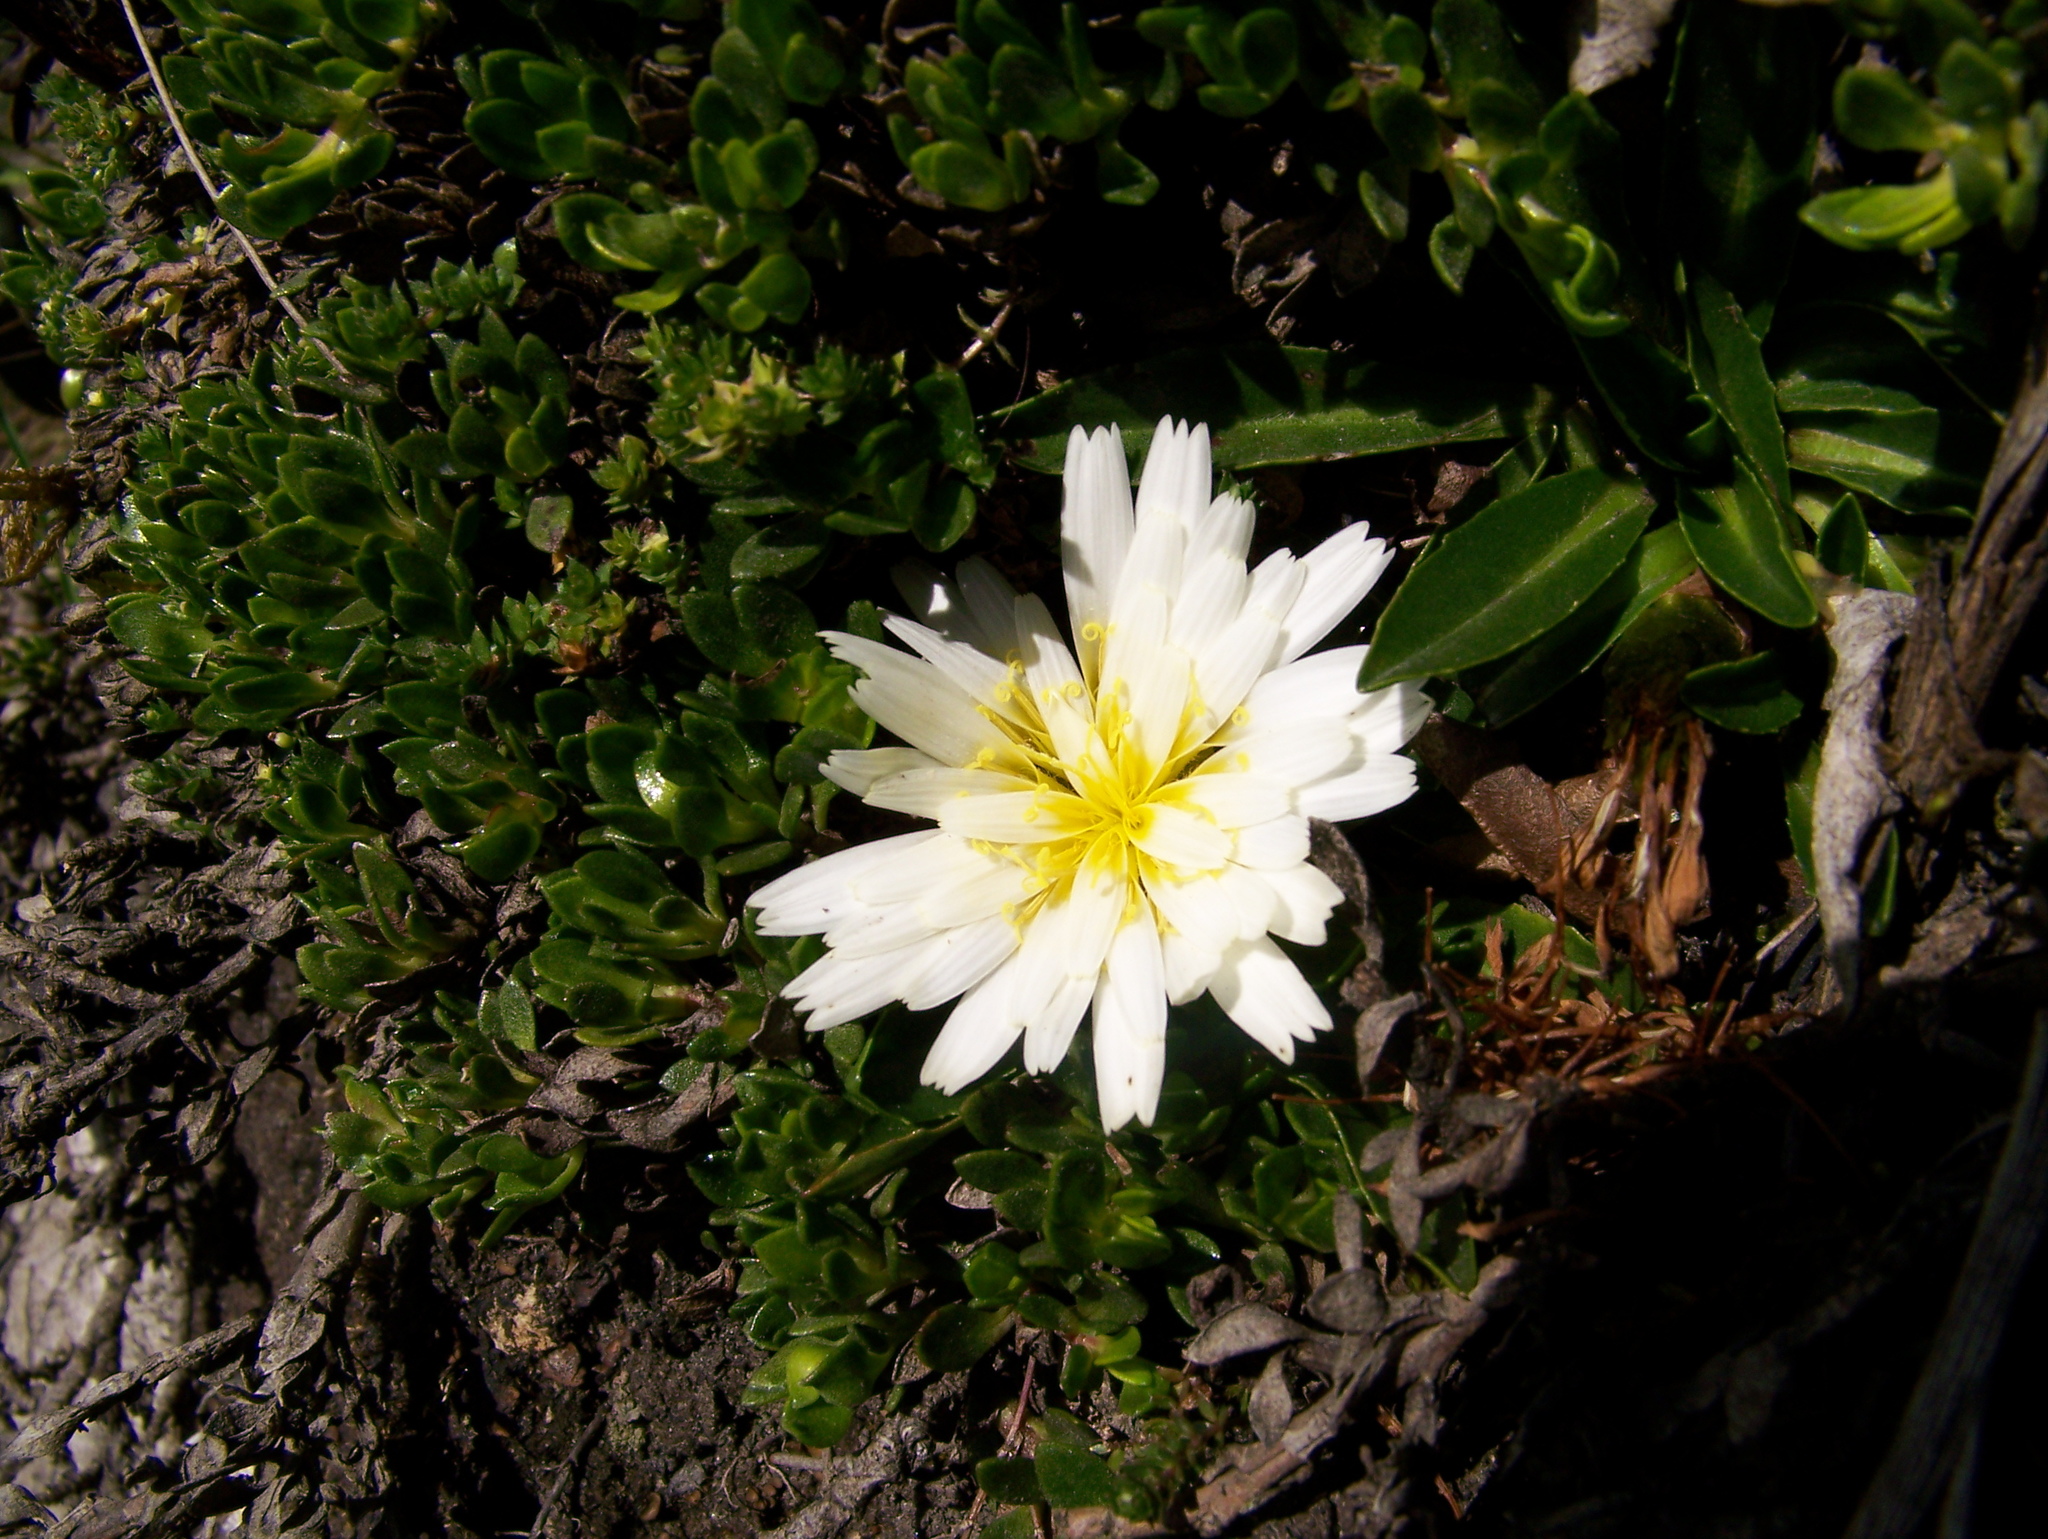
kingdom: Plantae
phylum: Tracheophyta
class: Magnoliopsida
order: Asterales
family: Asteraceae
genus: Hypochaeris
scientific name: Hypochaeris sessiliflora
